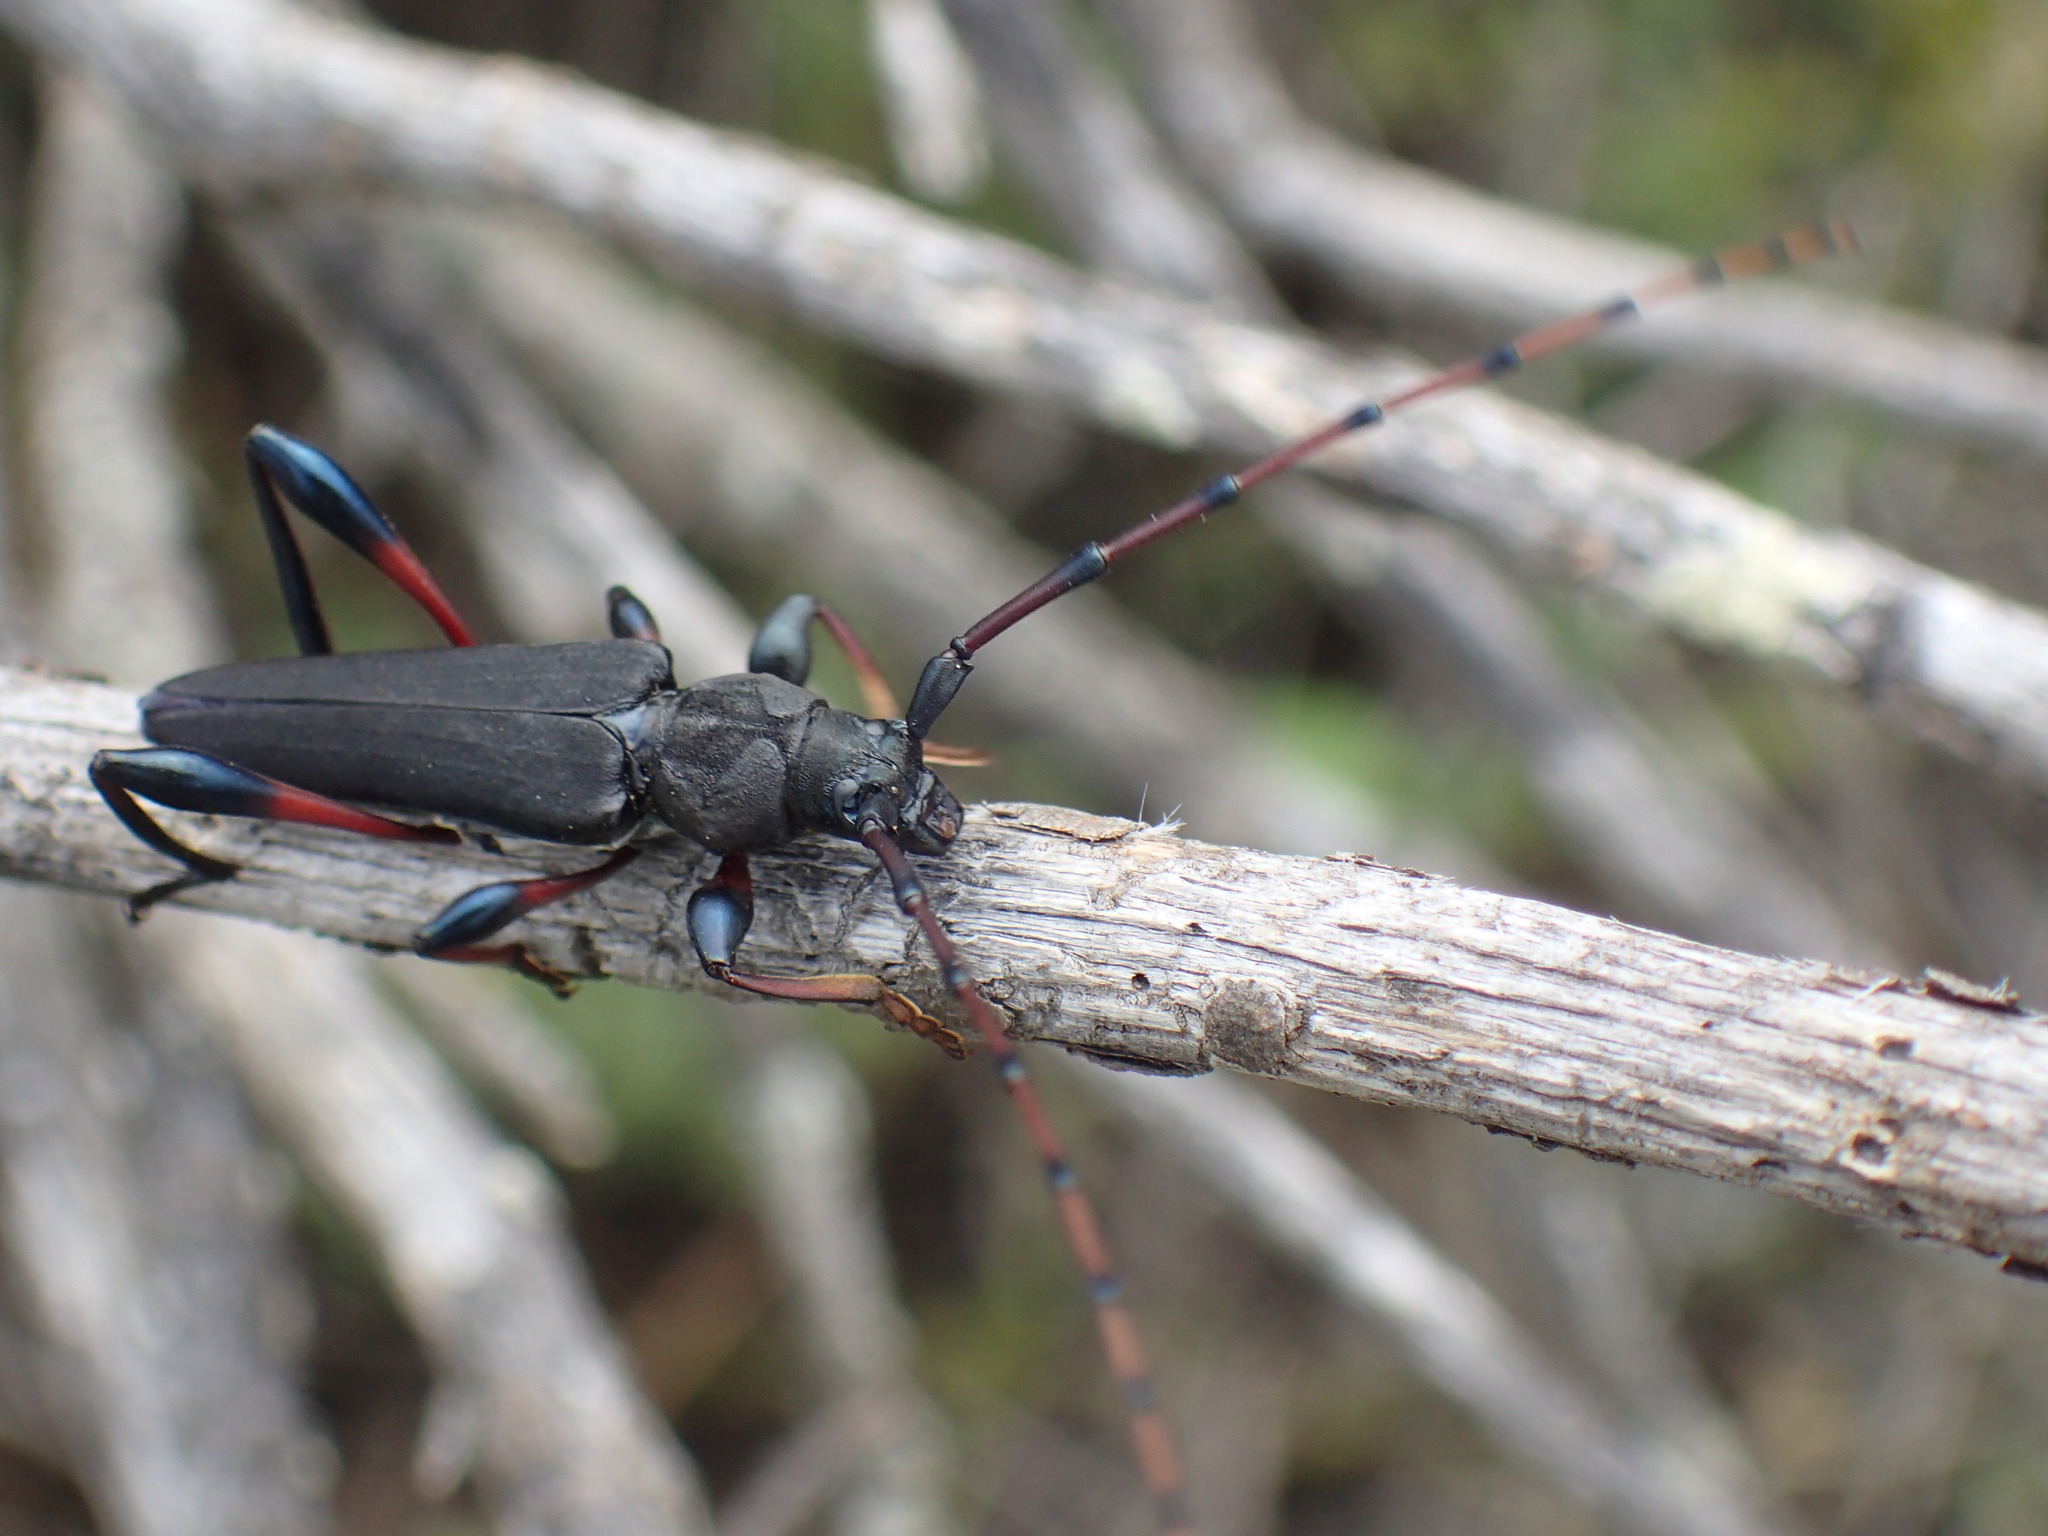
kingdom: Animalia
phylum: Arthropoda
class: Insecta
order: Coleoptera
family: Cerambycidae
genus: Litopus
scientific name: Litopus latipes
